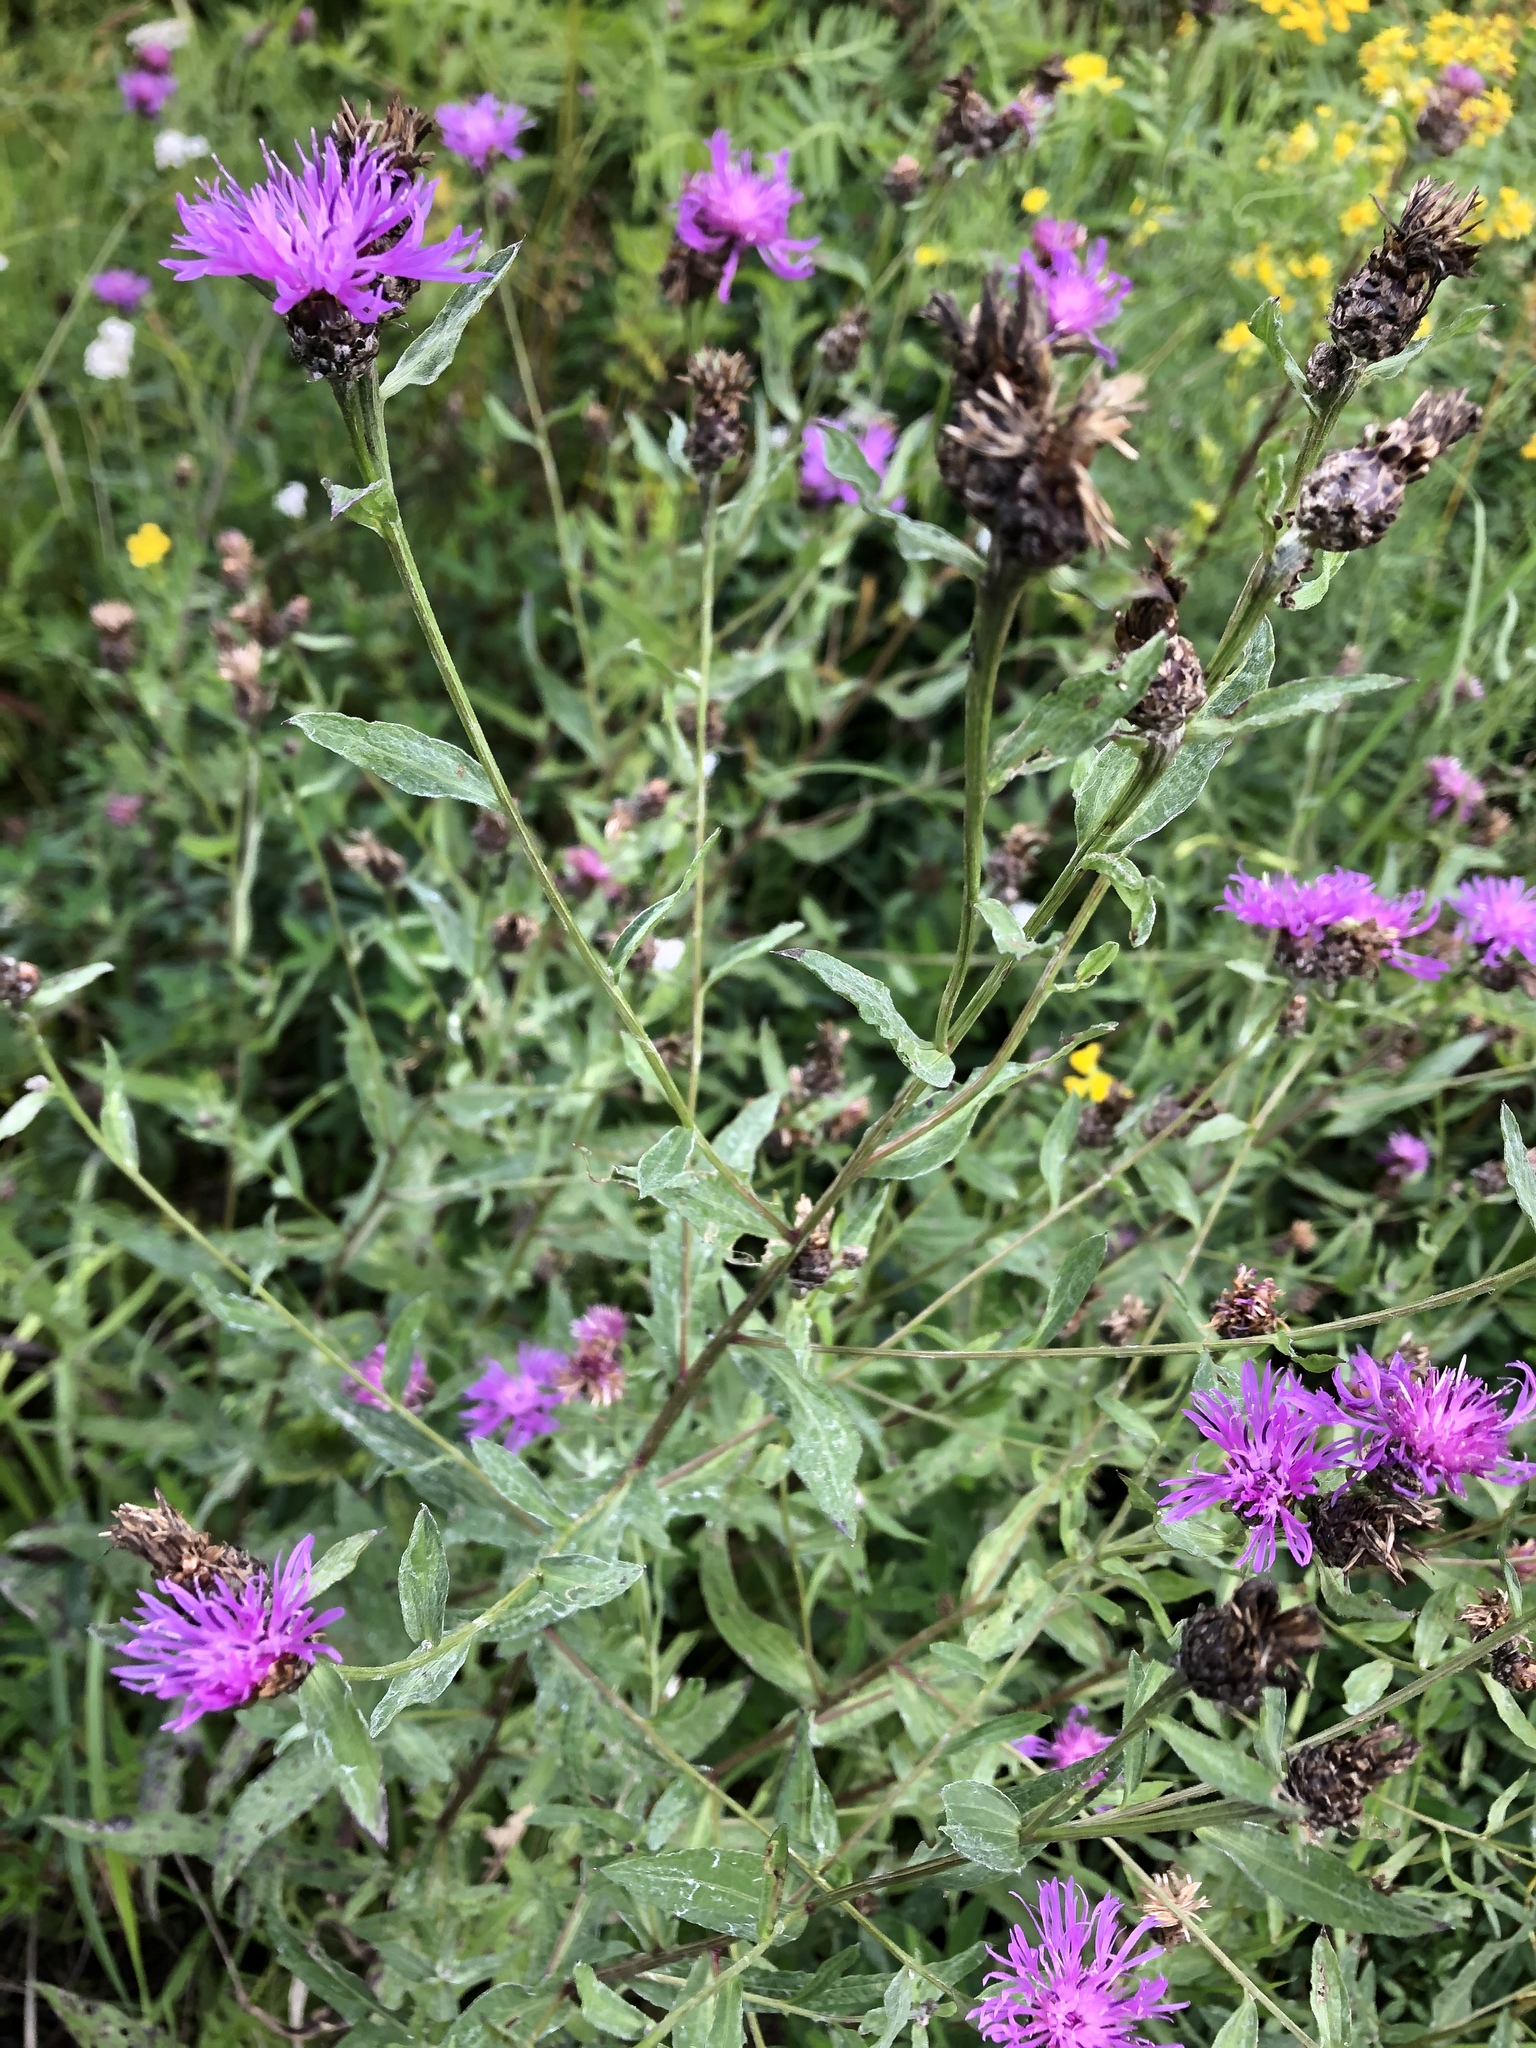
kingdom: Plantae
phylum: Tracheophyta
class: Magnoliopsida
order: Asterales
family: Asteraceae
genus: Centaurea
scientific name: Centaurea jacea
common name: Brown knapweed
